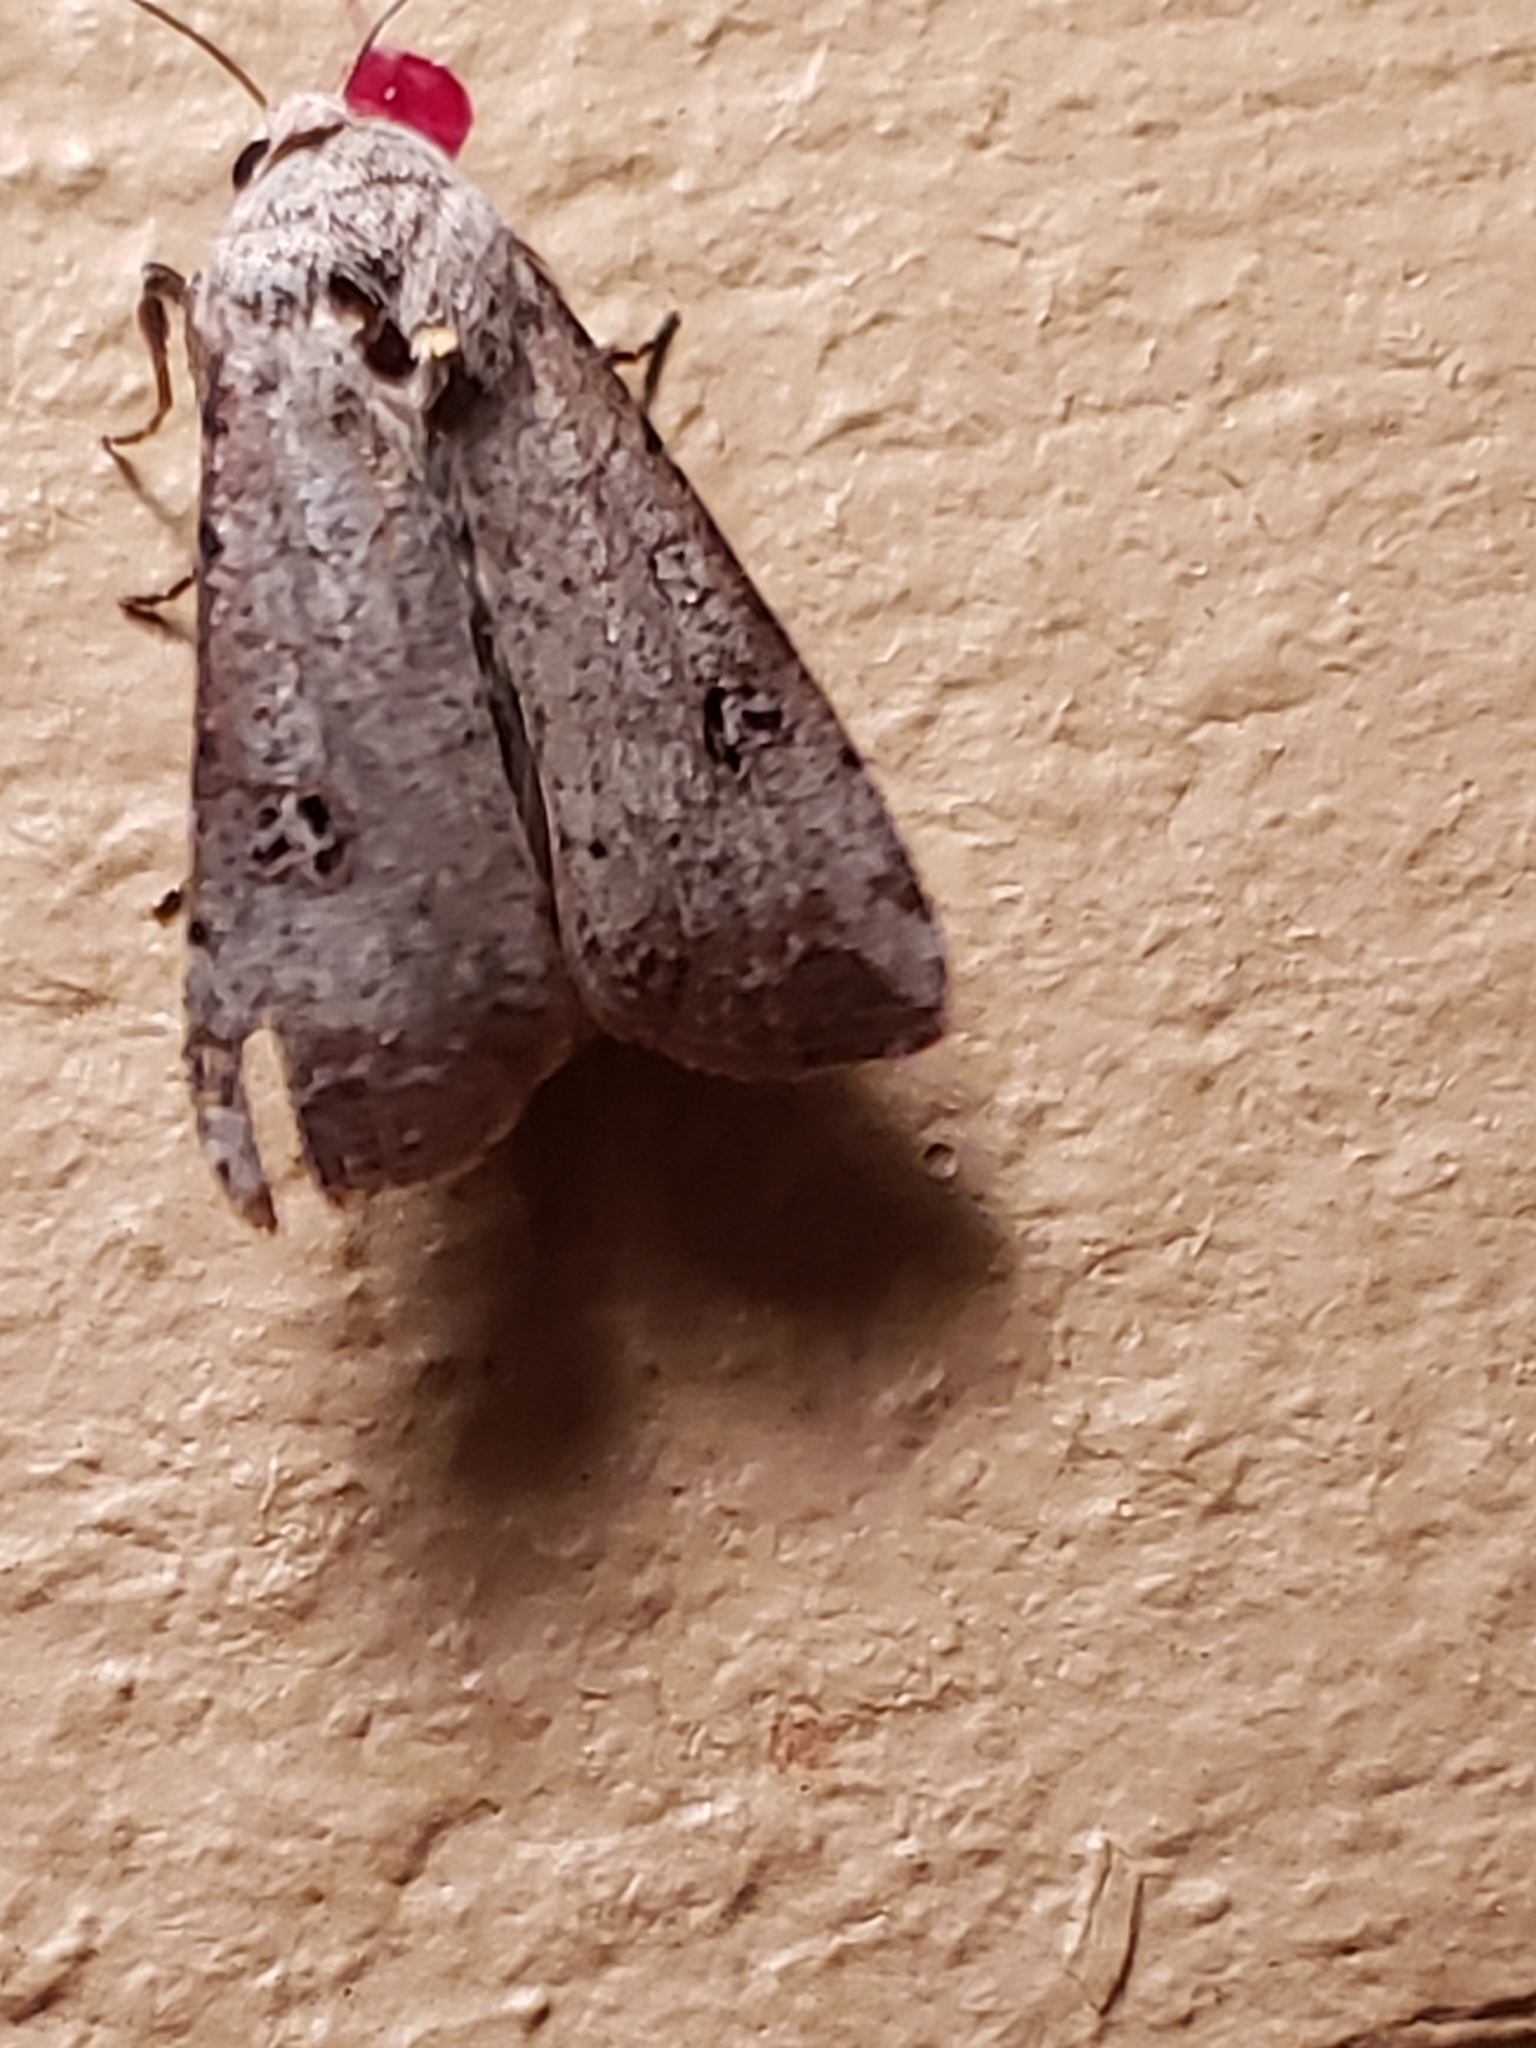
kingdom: Animalia
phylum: Arthropoda
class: Insecta
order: Lepidoptera
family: Noctuidae
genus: Anicla
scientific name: Anicla infecta
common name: Green cutworm
